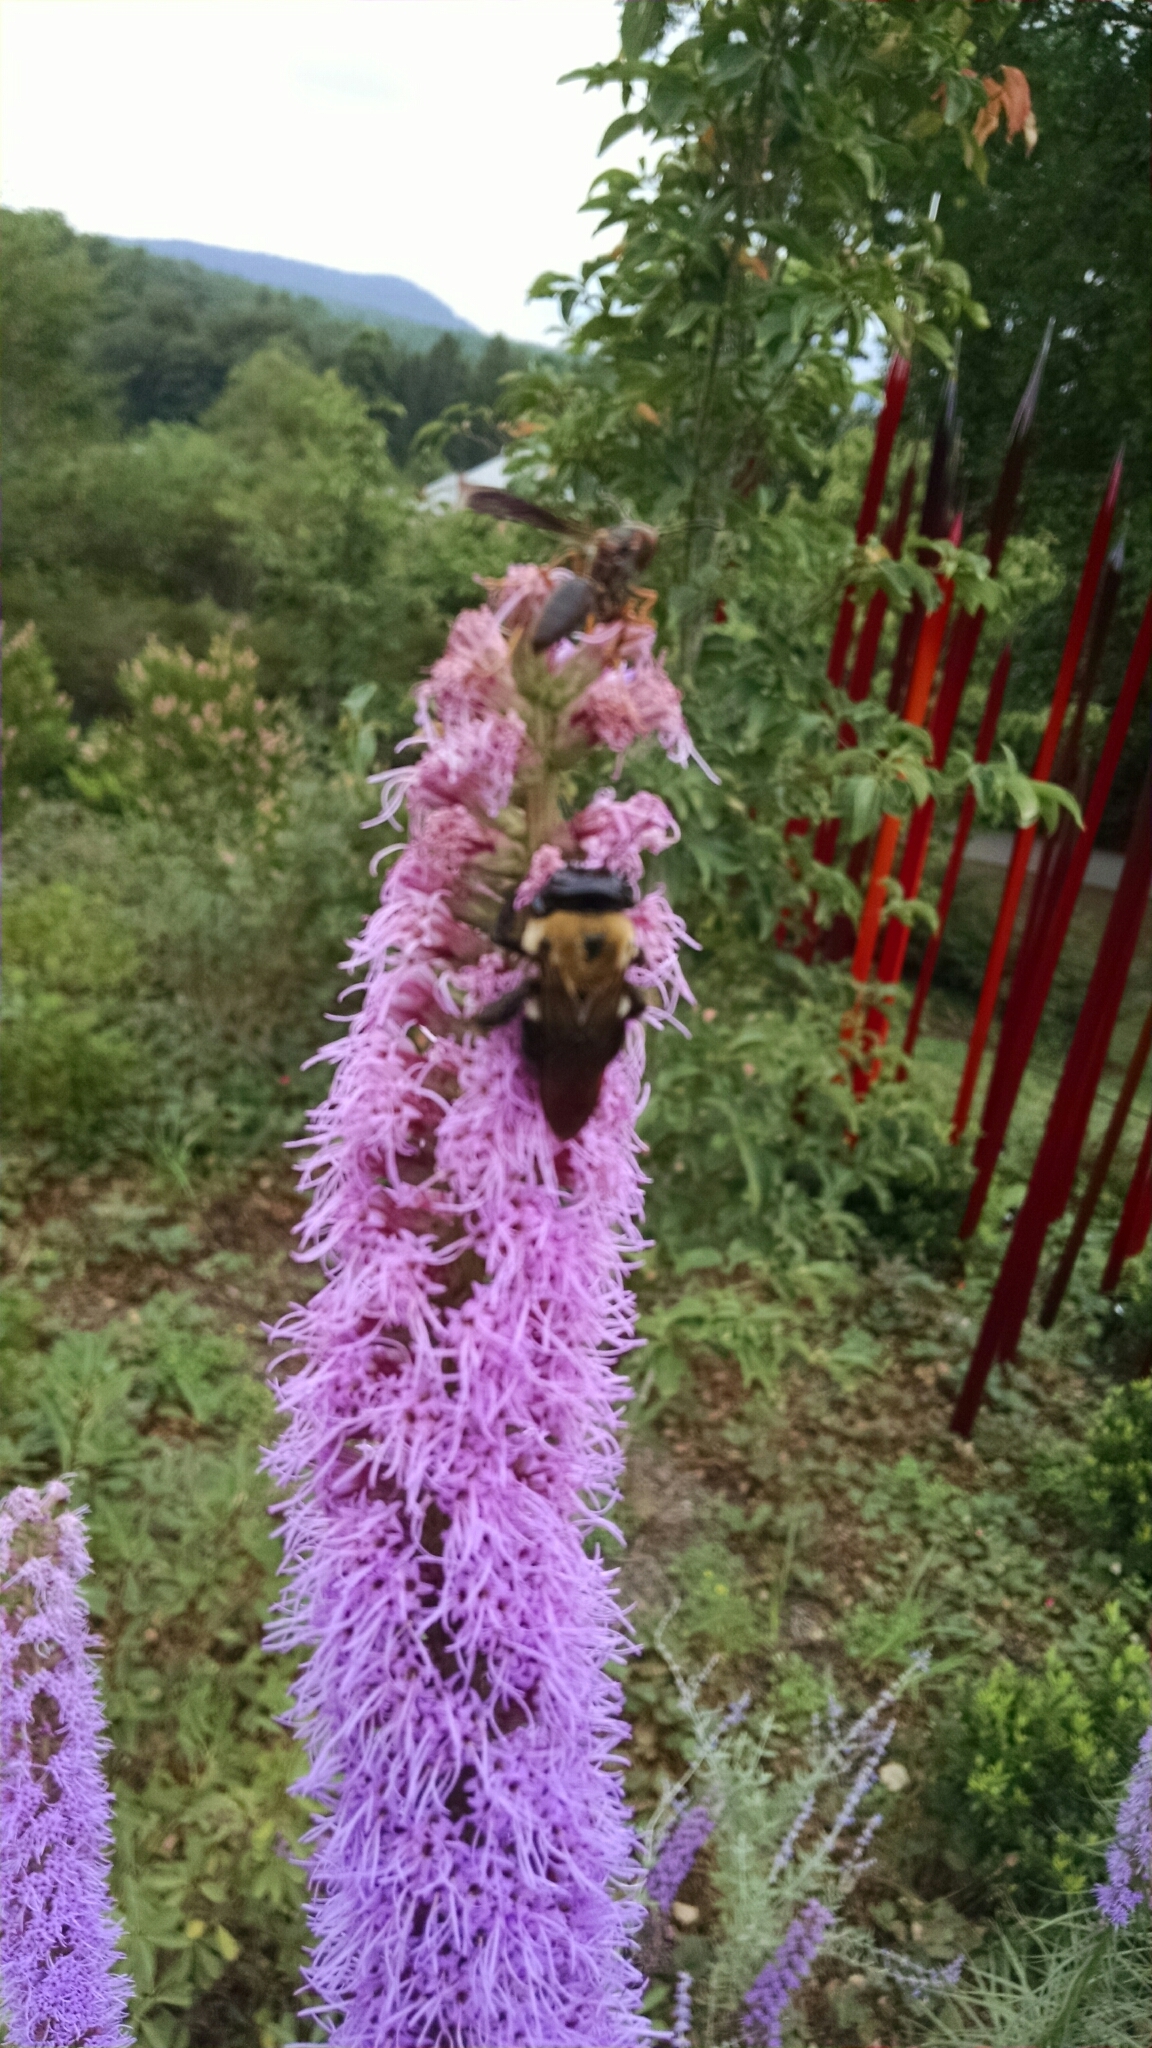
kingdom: Animalia
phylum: Arthropoda
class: Insecta
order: Hymenoptera
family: Vespidae
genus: Fuscopolistes
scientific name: Fuscopolistes
